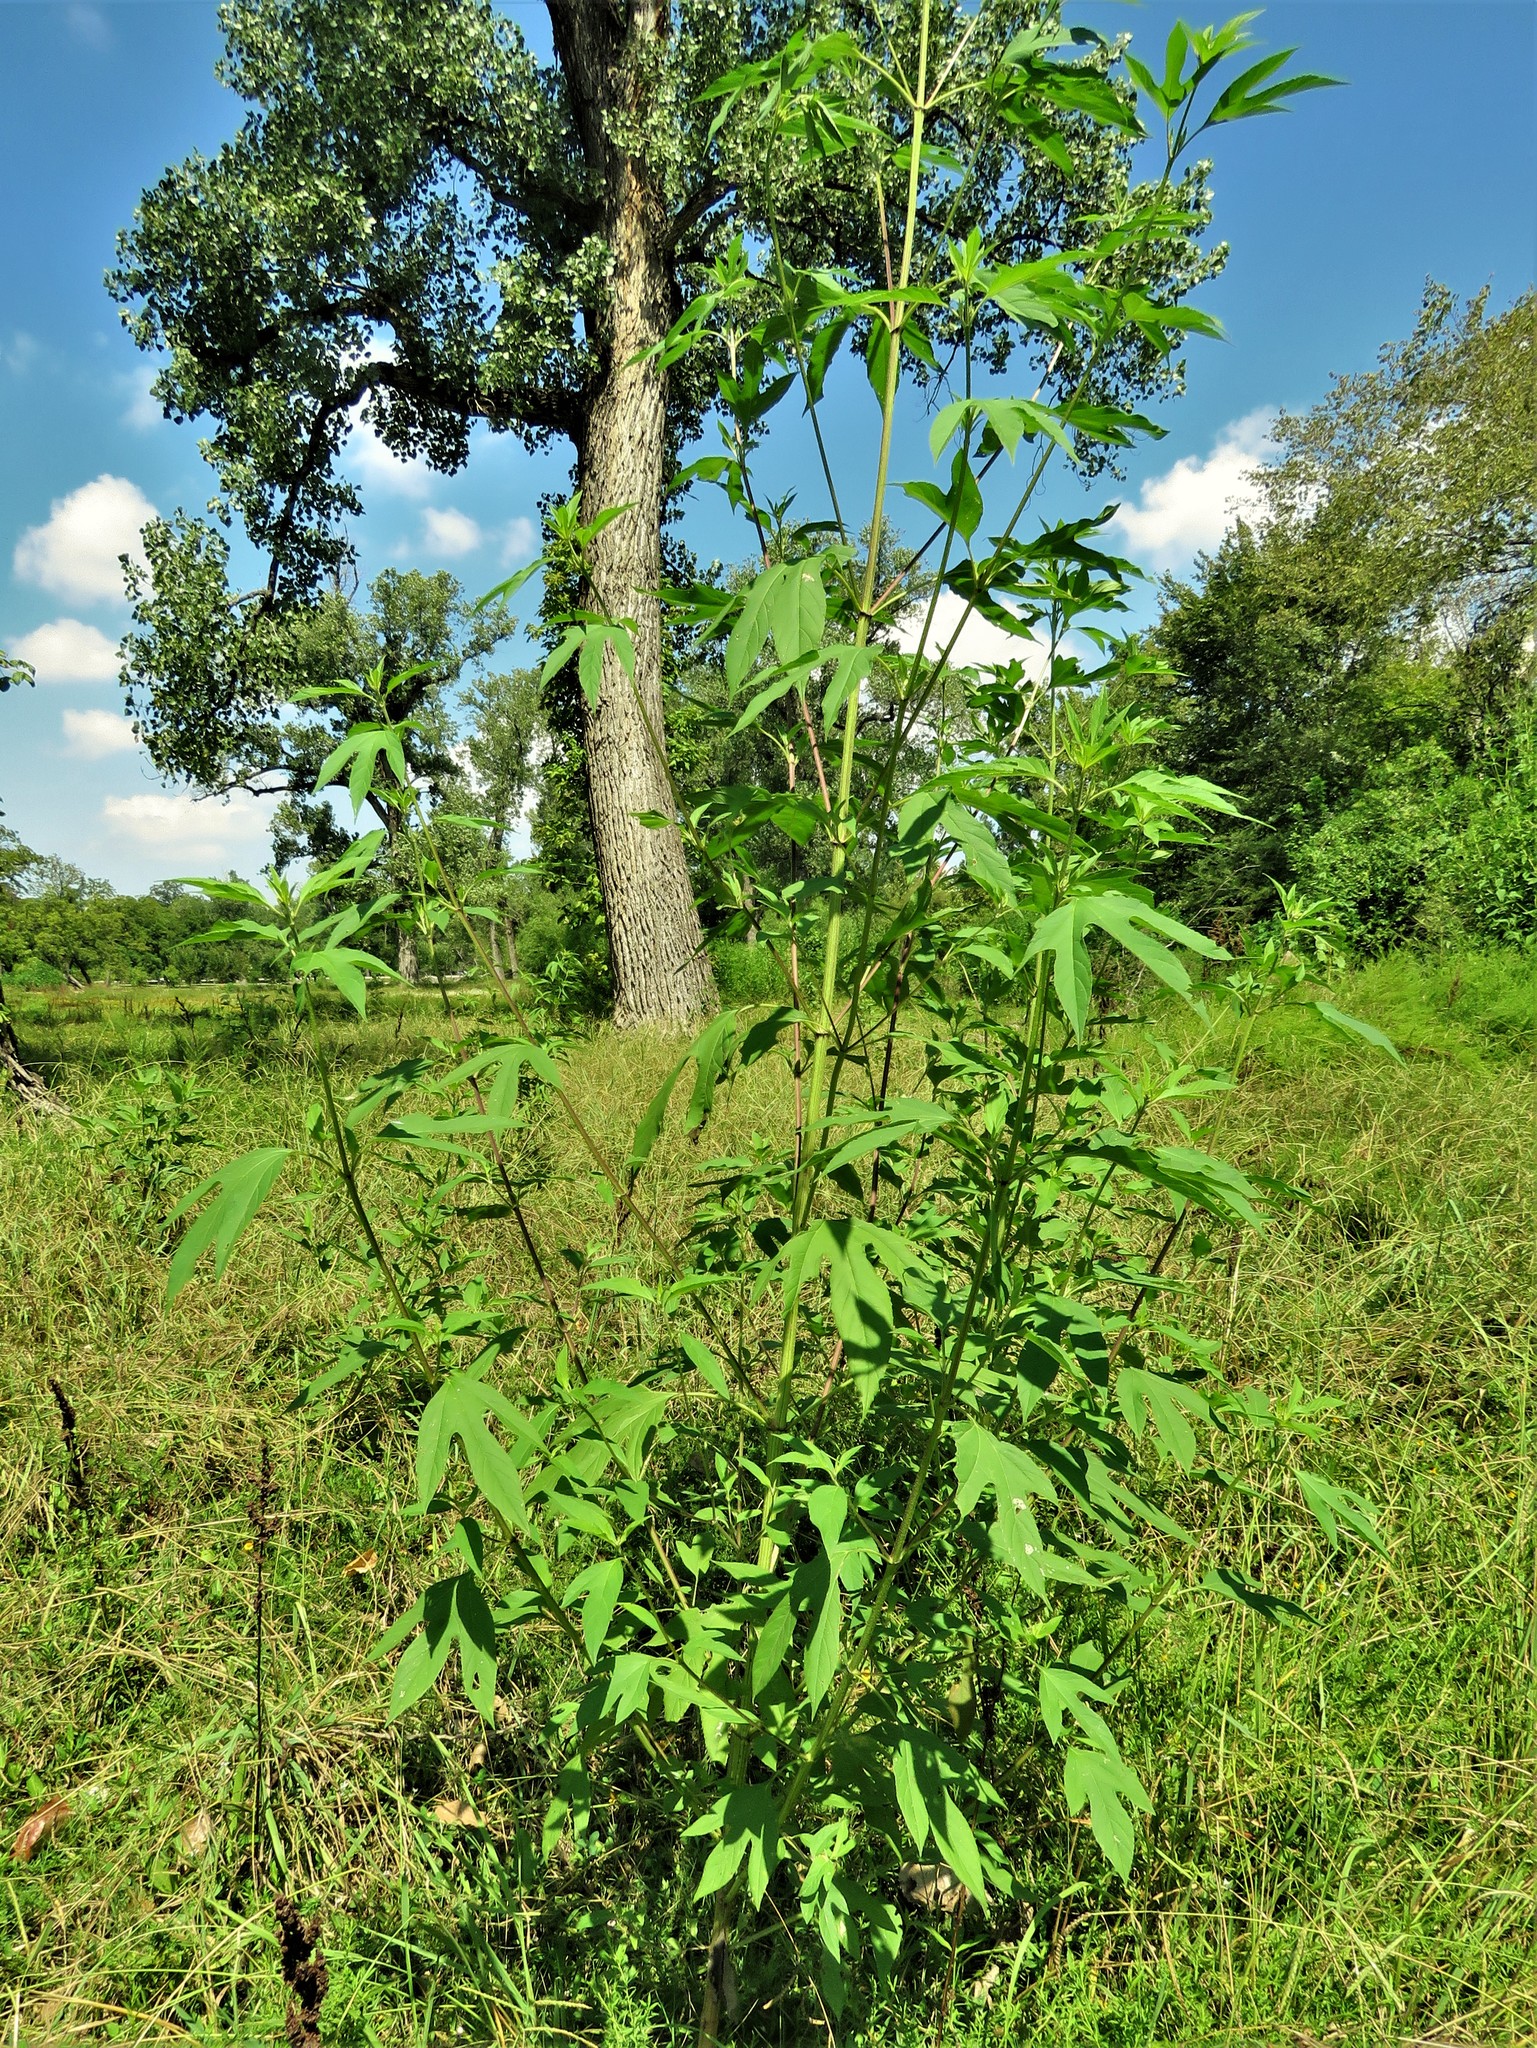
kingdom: Plantae
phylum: Tracheophyta
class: Magnoliopsida
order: Asterales
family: Asteraceae
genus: Ambrosia
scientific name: Ambrosia trifida
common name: Giant ragweed
